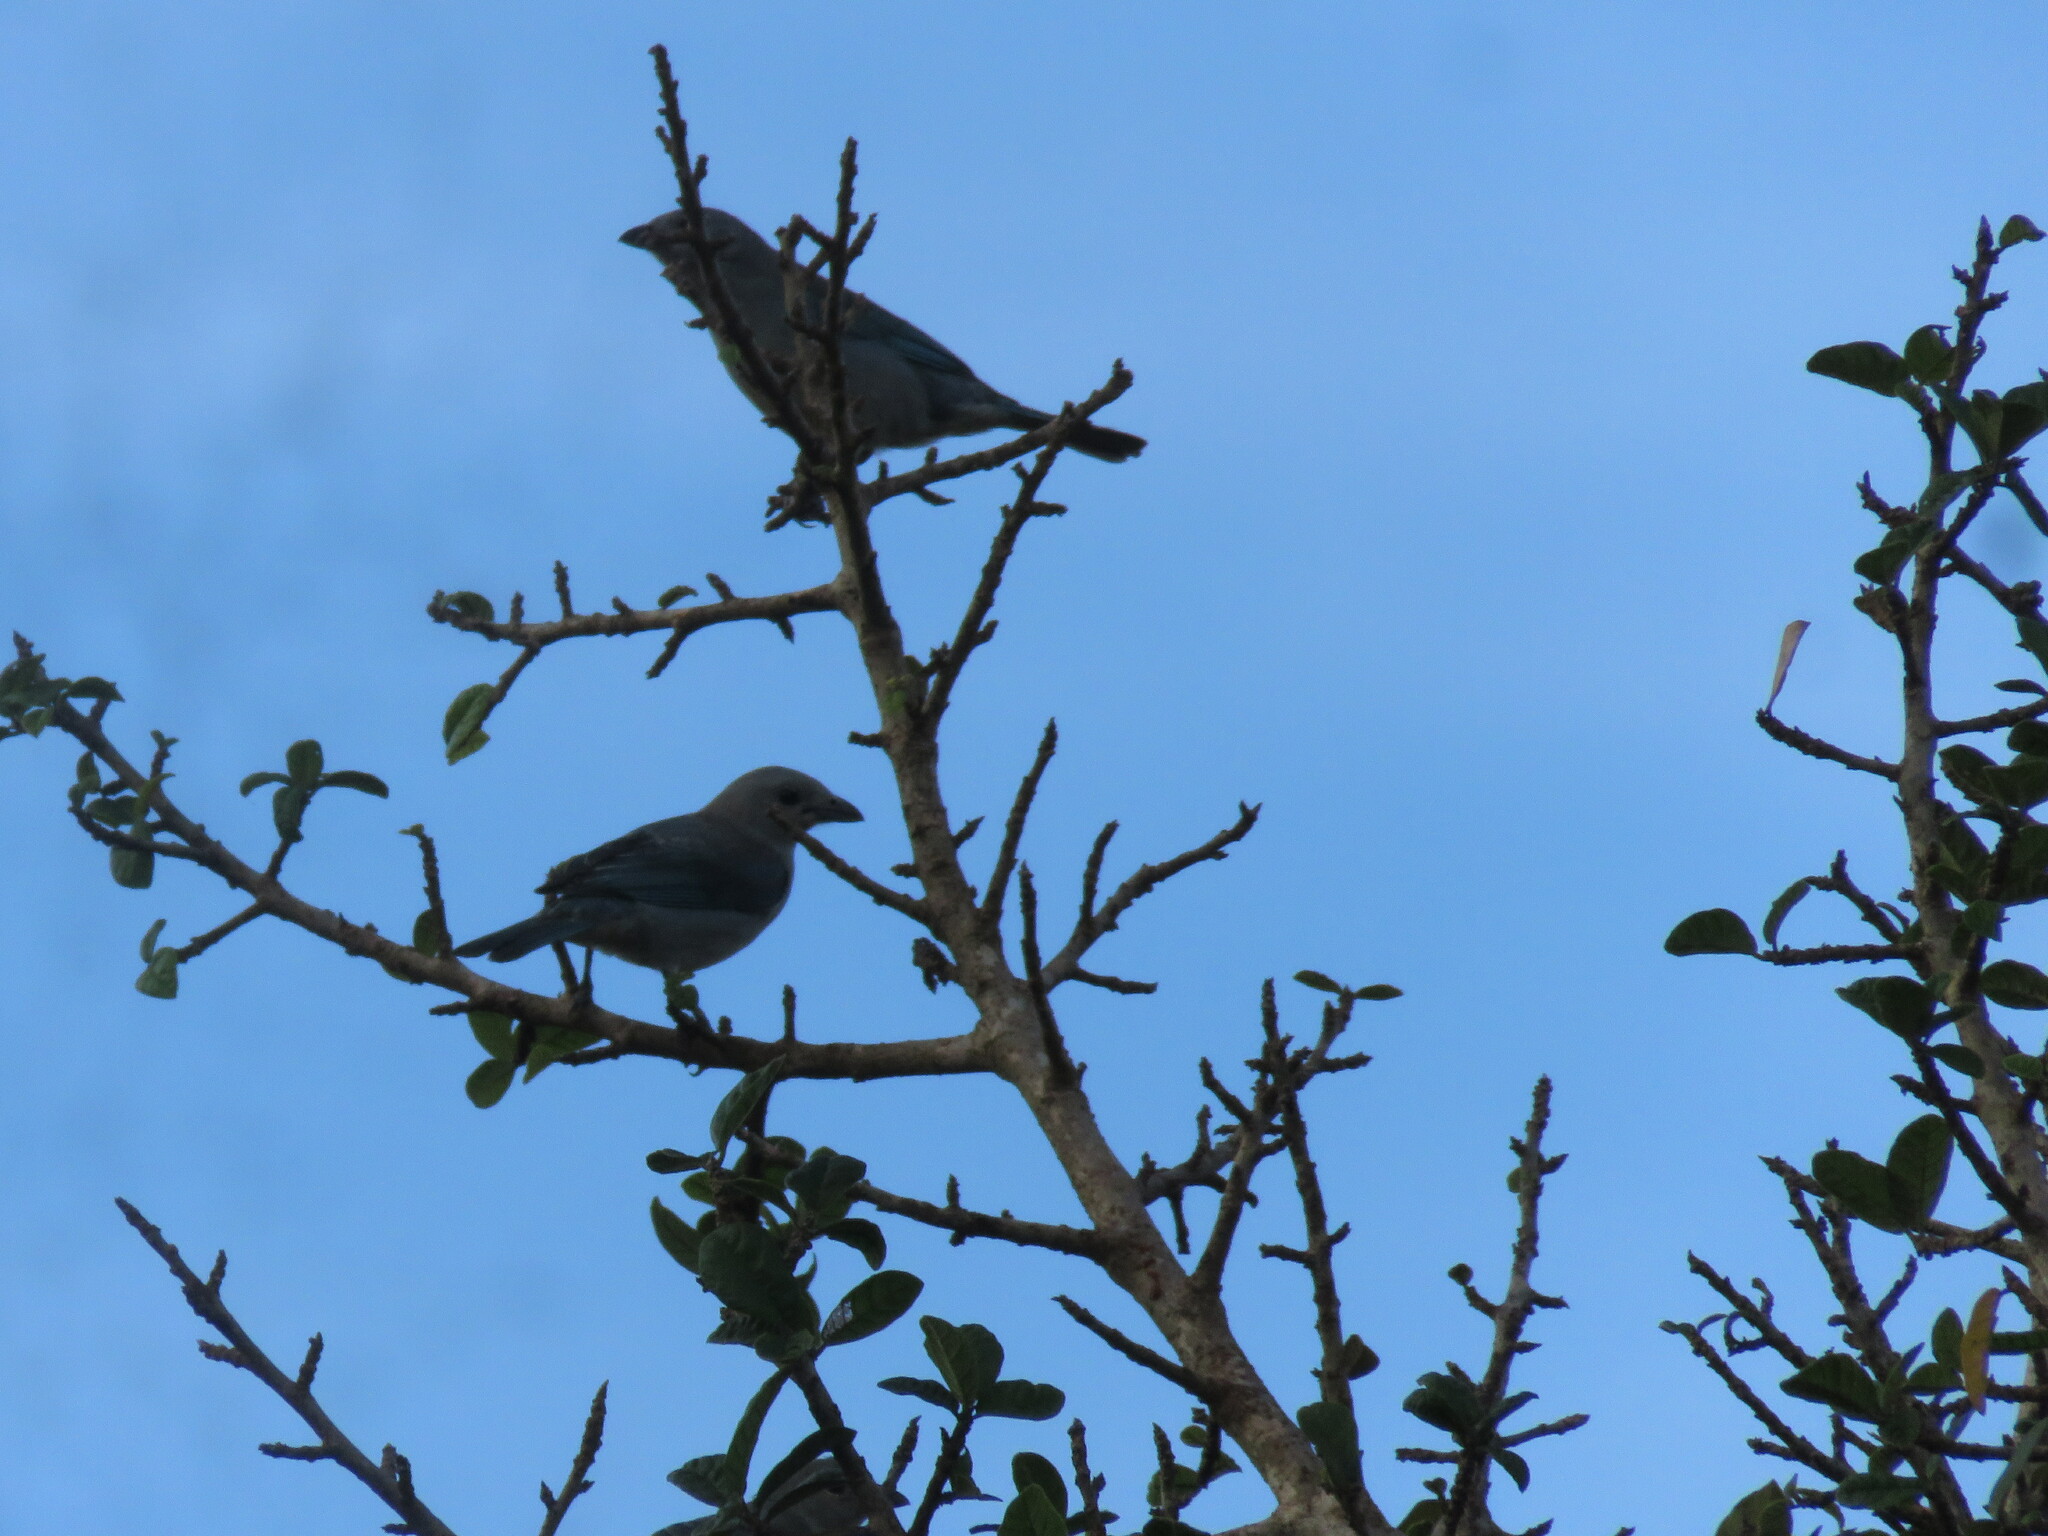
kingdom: Animalia
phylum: Chordata
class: Aves
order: Passeriformes
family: Thraupidae
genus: Thraupis
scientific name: Thraupis sayaca
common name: Sayaca tanager
